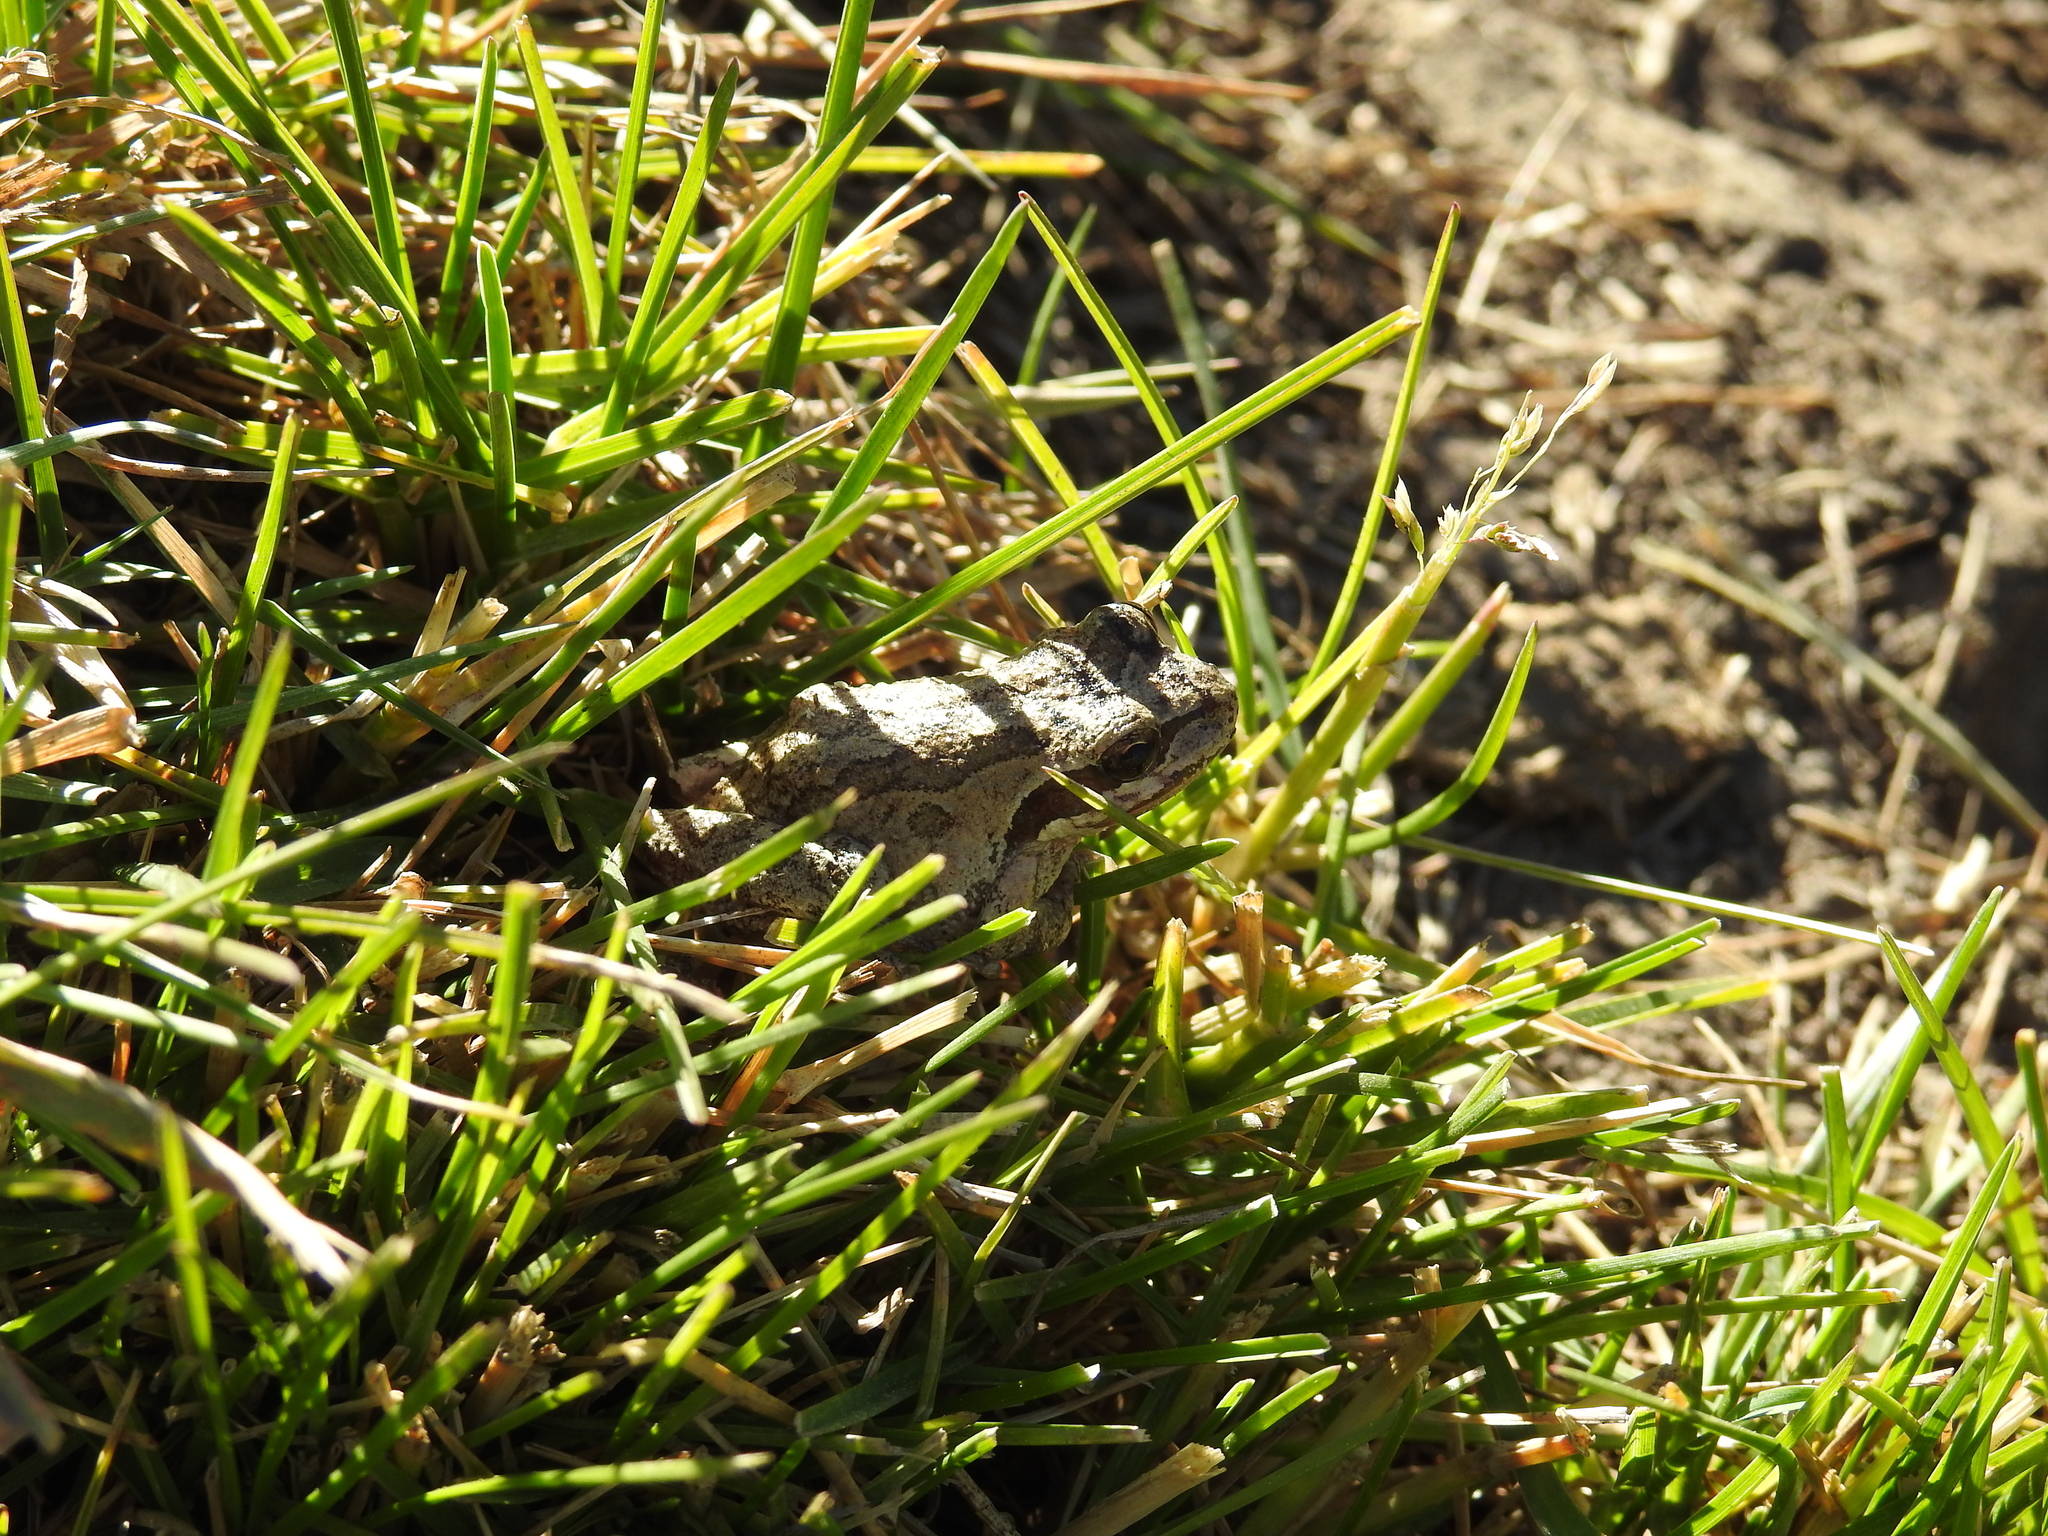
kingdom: Animalia
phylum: Chordata
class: Amphibia
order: Anura
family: Hylidae
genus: Pseudacris
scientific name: Pseudacris regilla
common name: Pacific chorus frog
